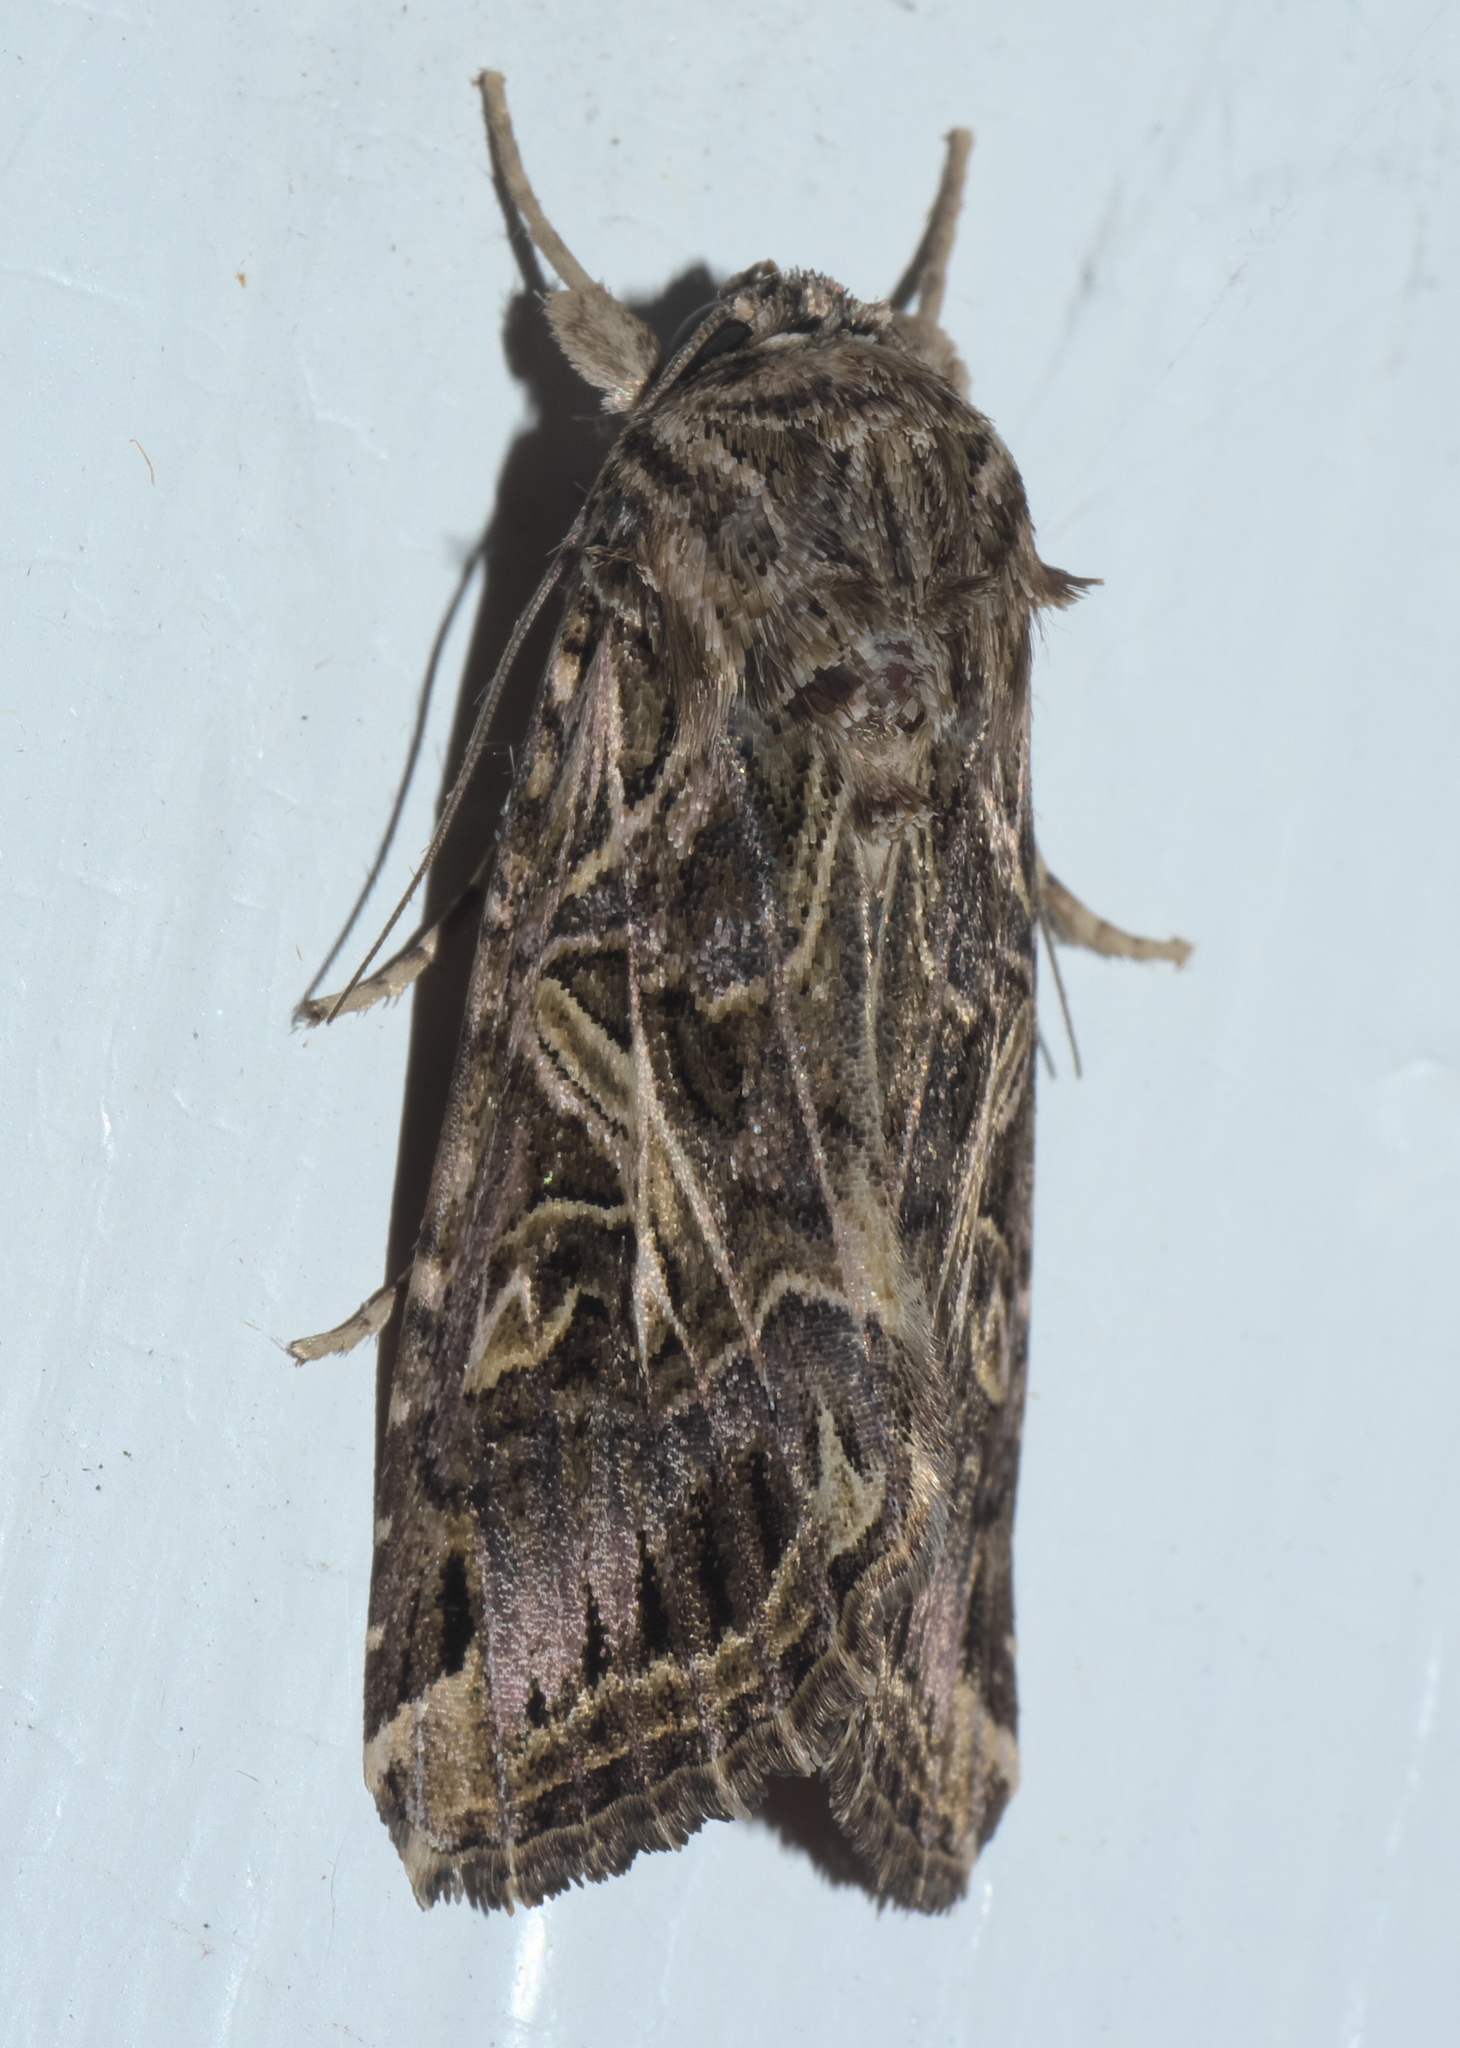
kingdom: Animalia
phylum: Arthropoda
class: Insecta
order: Lepidoptera
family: Noctuidae
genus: Spodoptera
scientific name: Spodoptera litura
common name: Asian cotton leafworm
